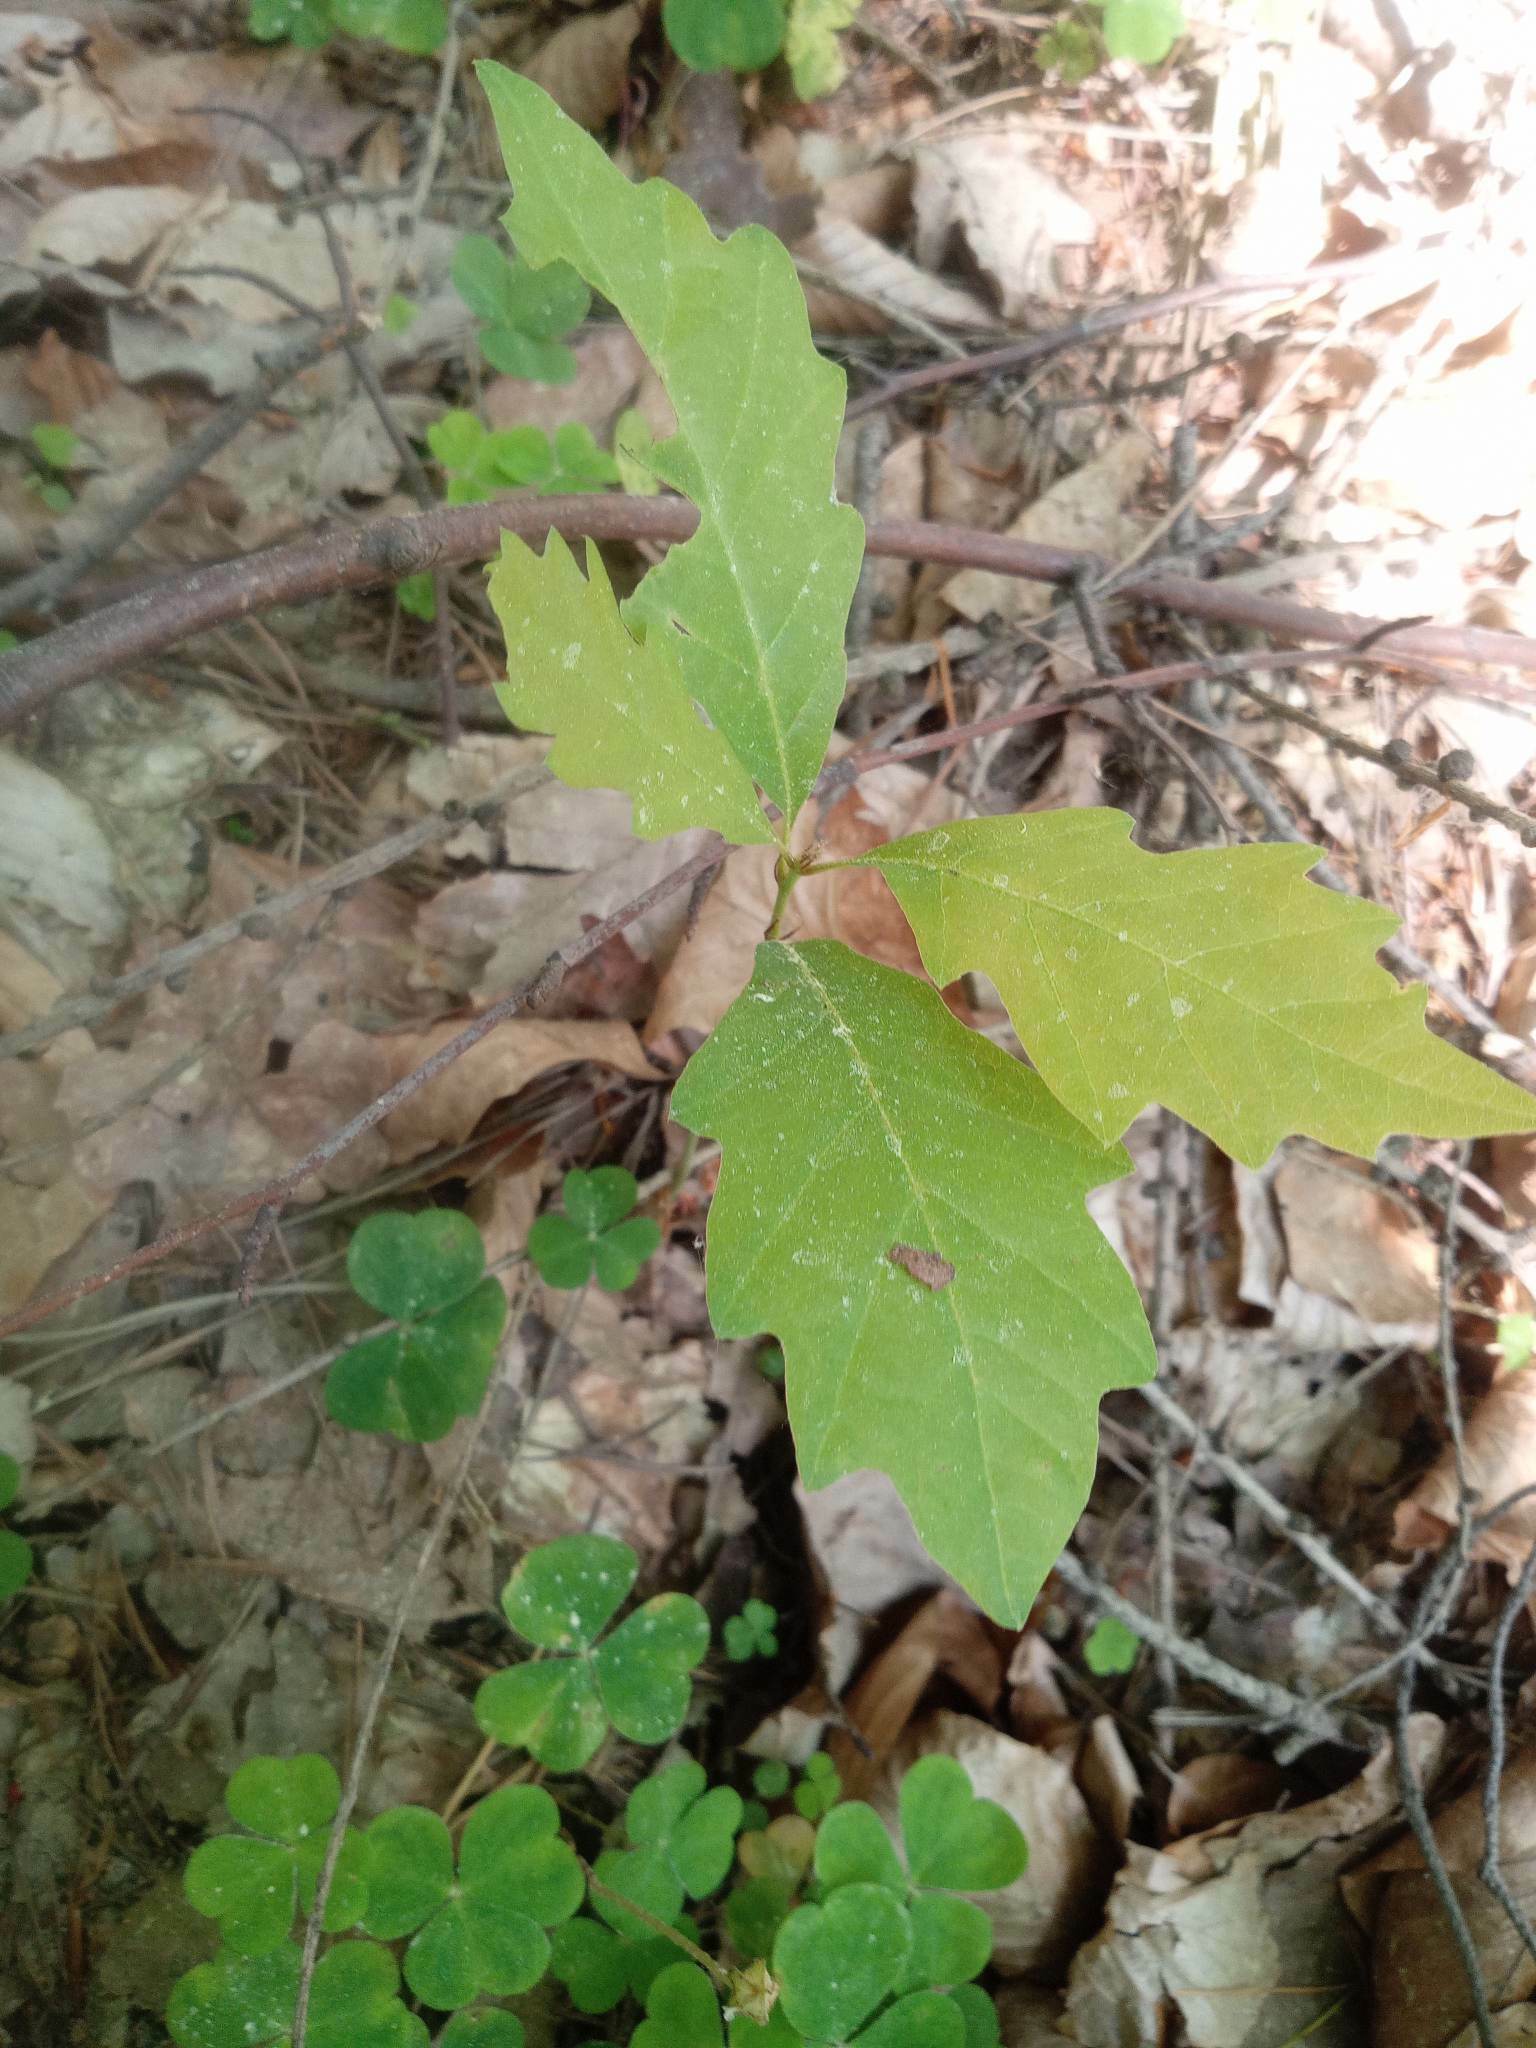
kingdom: Plantae
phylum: Tracheophyta
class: Magnoliopsida
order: Fagales
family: Fagaceae
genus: Quercus
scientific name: Quercus rubra
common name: Red oak
